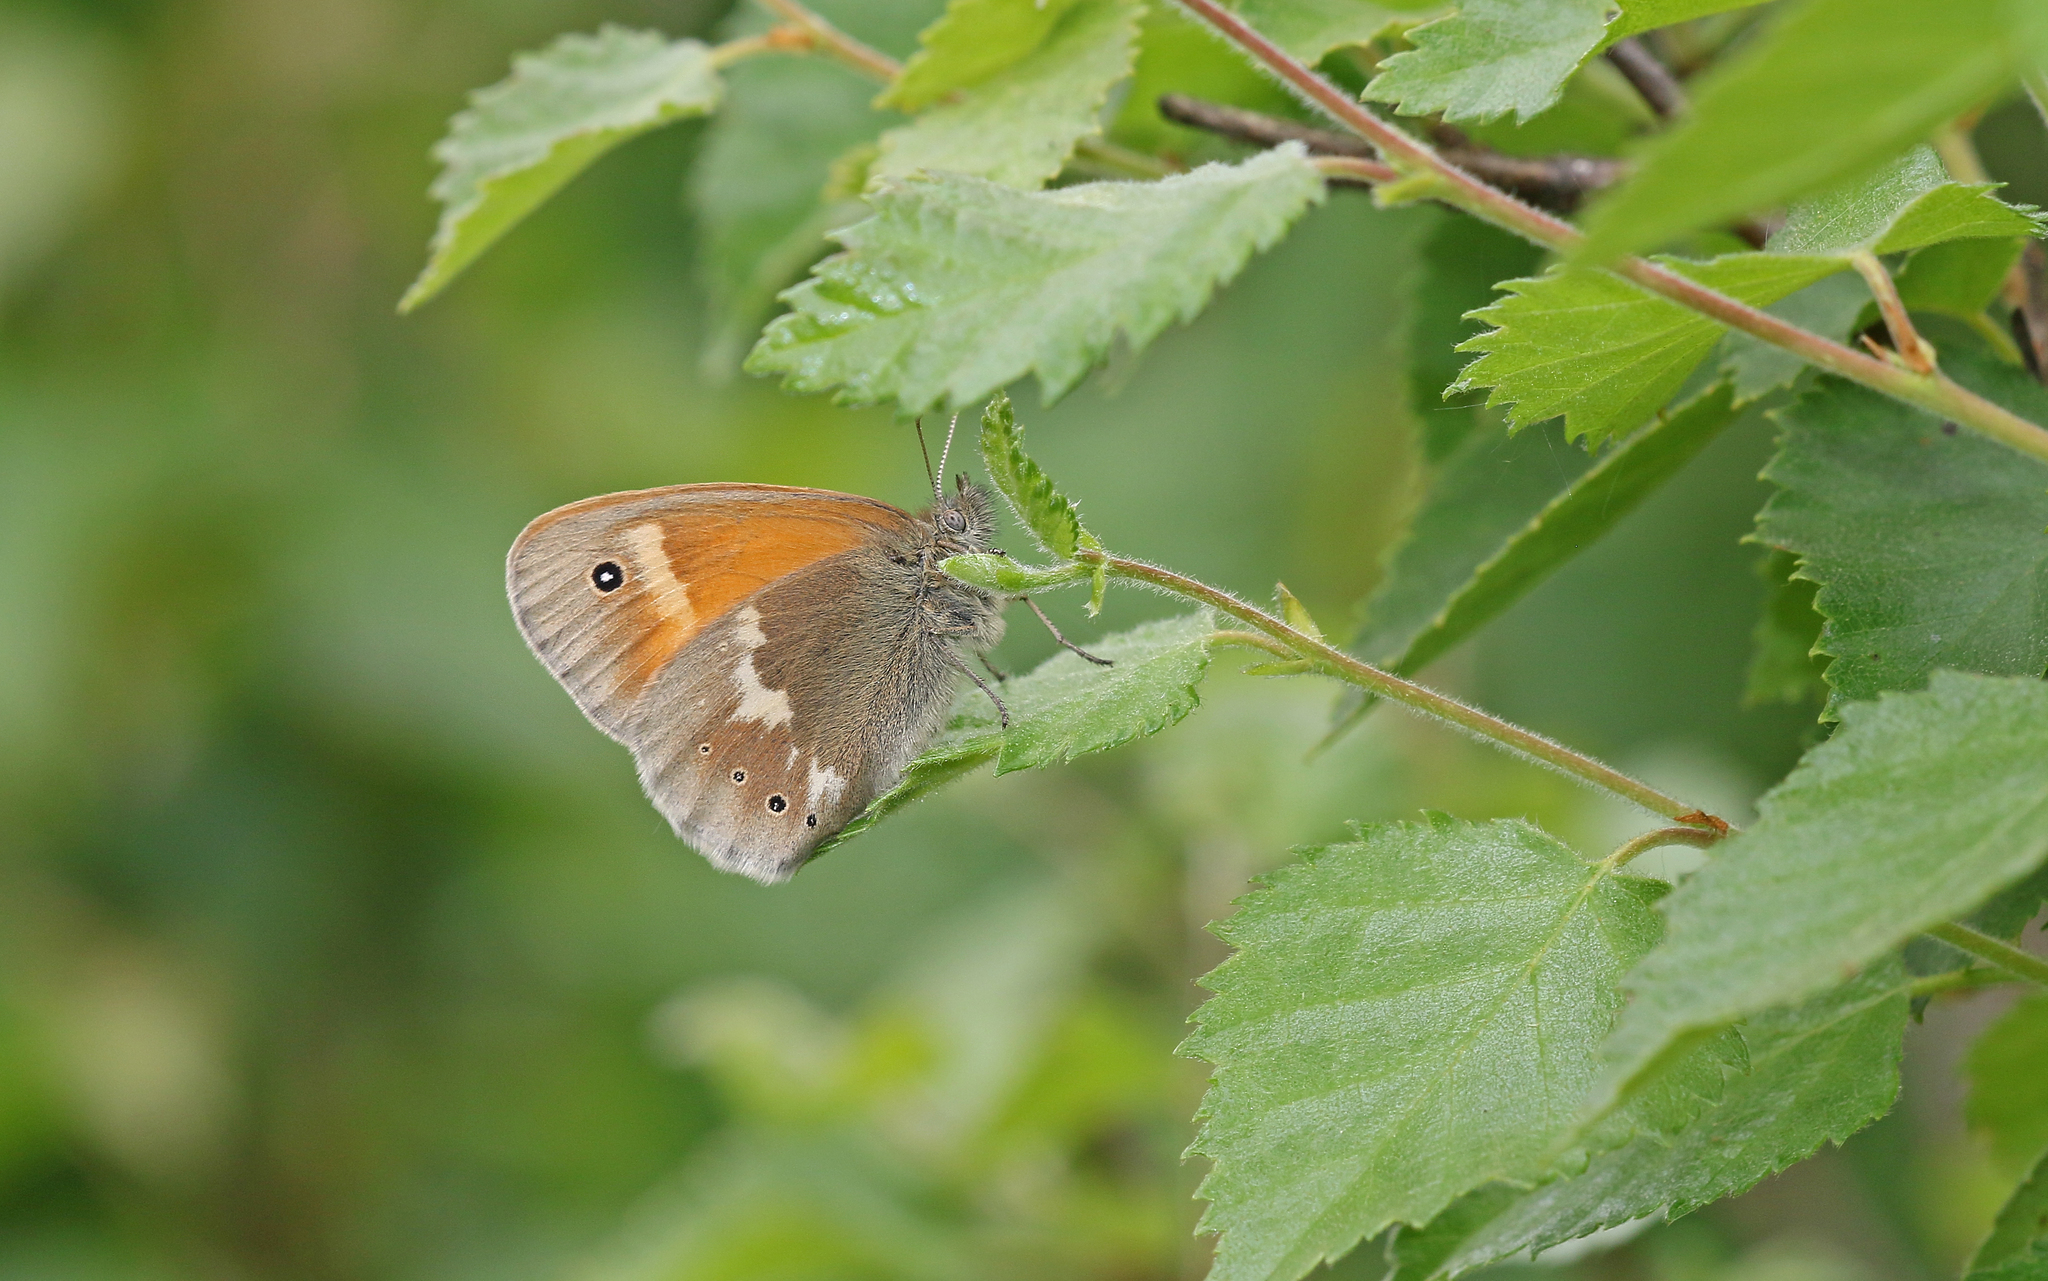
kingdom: Animalia
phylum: Arthropoda
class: Insecta
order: Lepidoptera
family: Nymphalidae
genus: Coenonympha
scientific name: Coenonympha tullia
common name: Large heath
